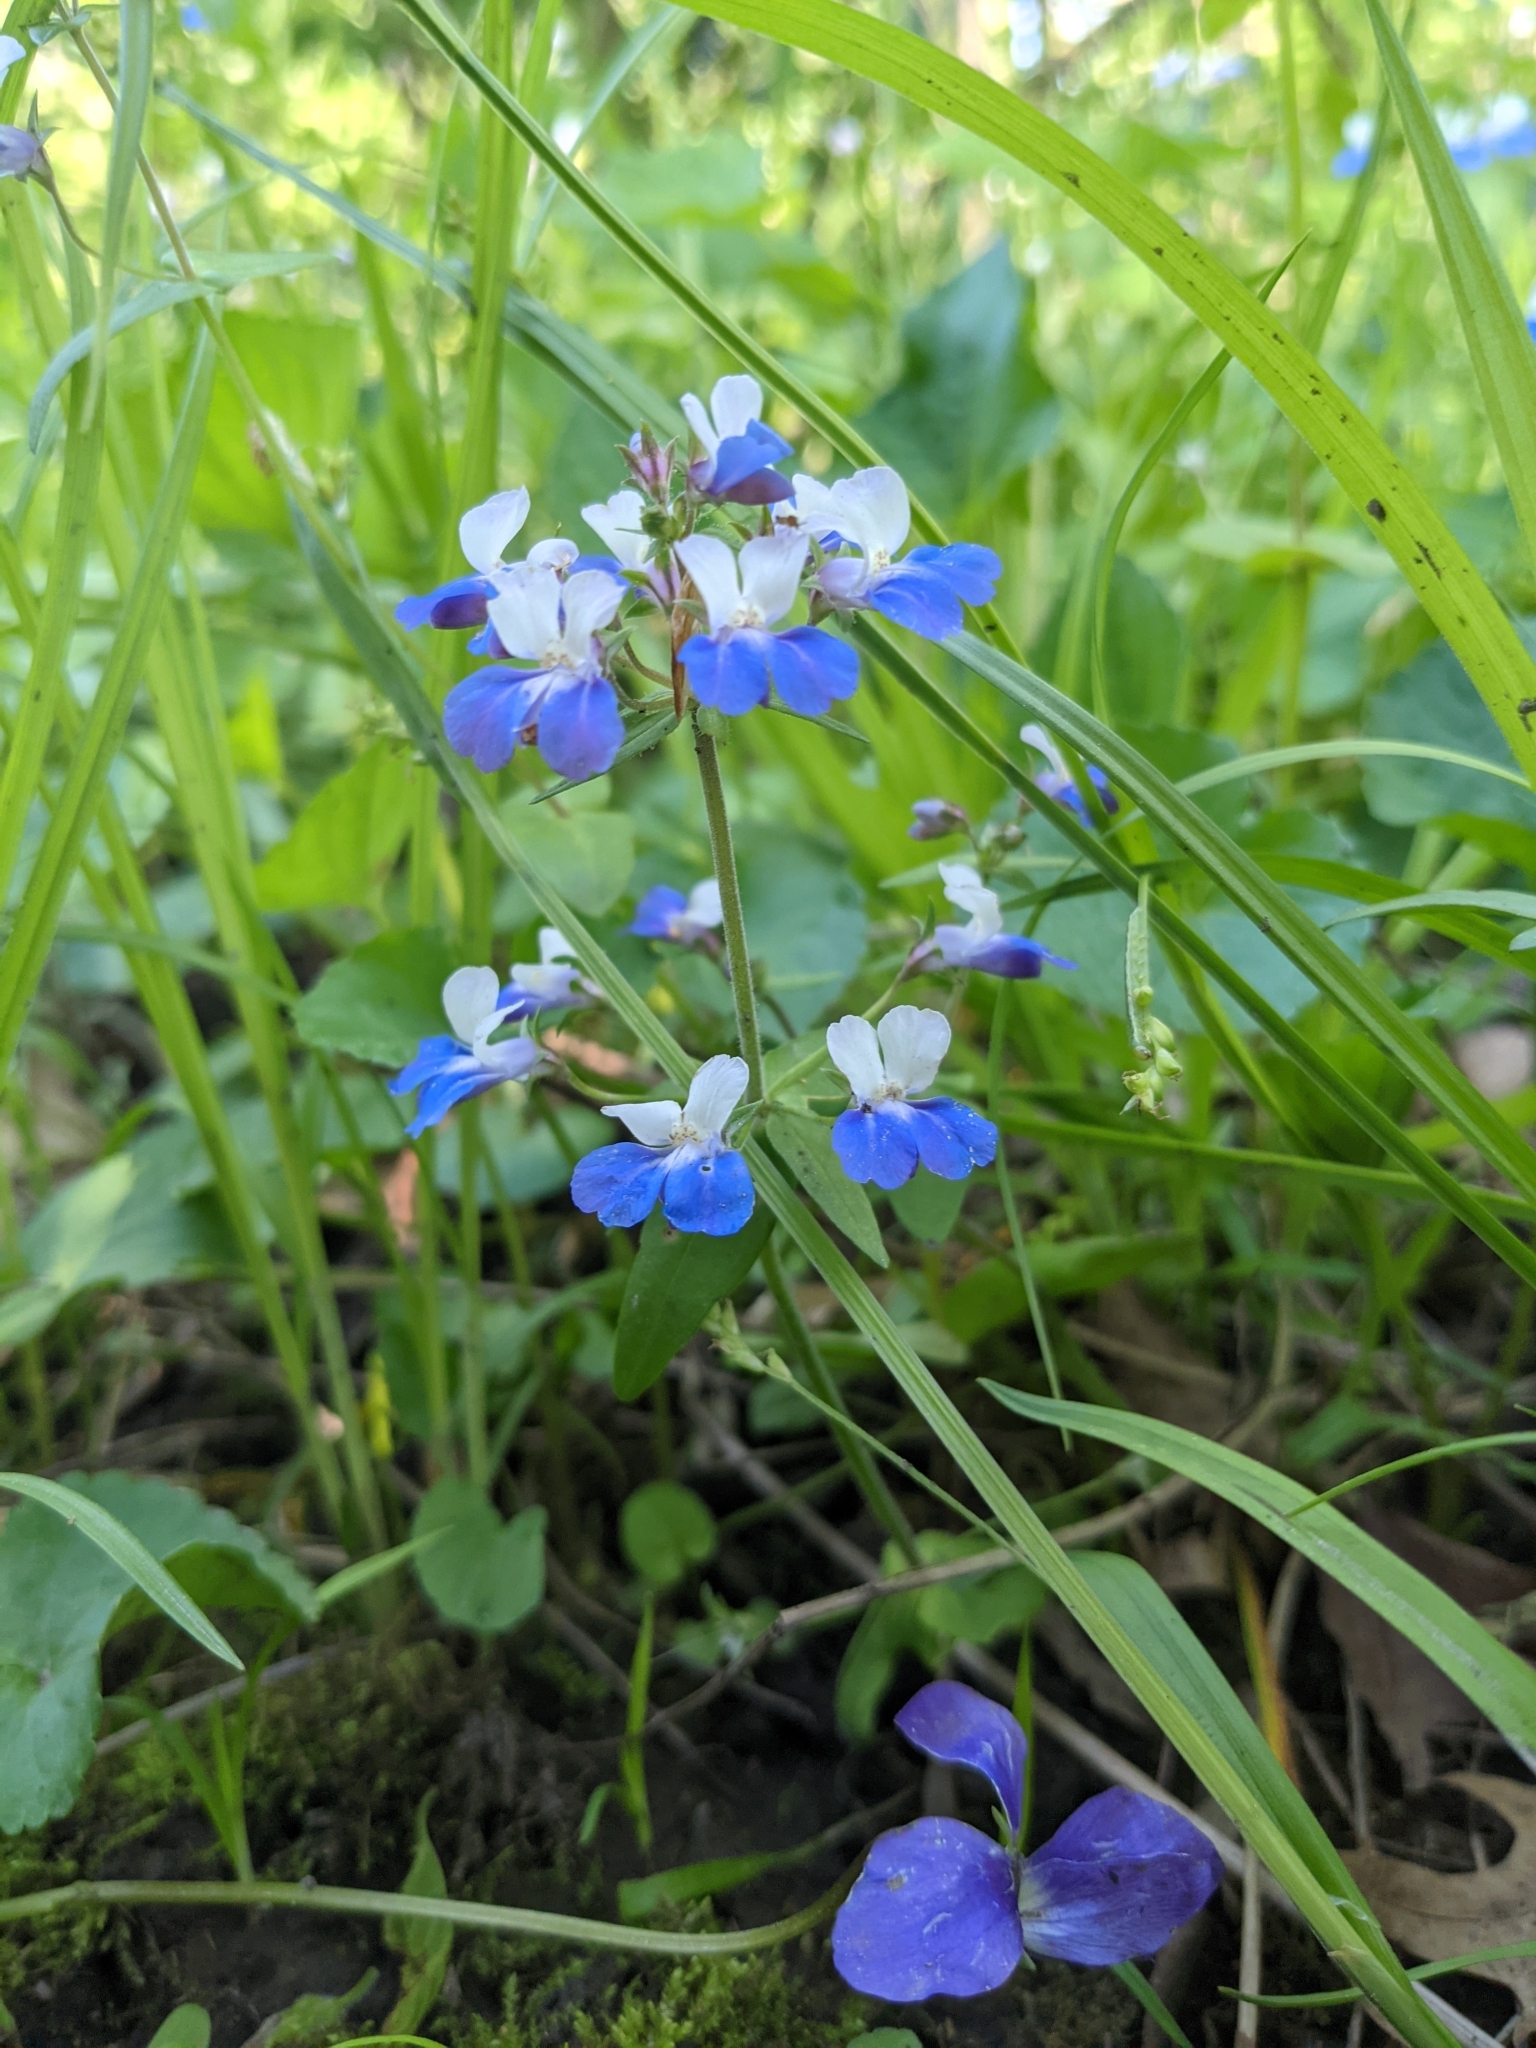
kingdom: Plantae
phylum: Tracheophyta
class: Magnoliopsida
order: Lamiales
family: Plantaginaceae
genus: Collinsia
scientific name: Collinsia verna
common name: Broad-leaved collinsia
